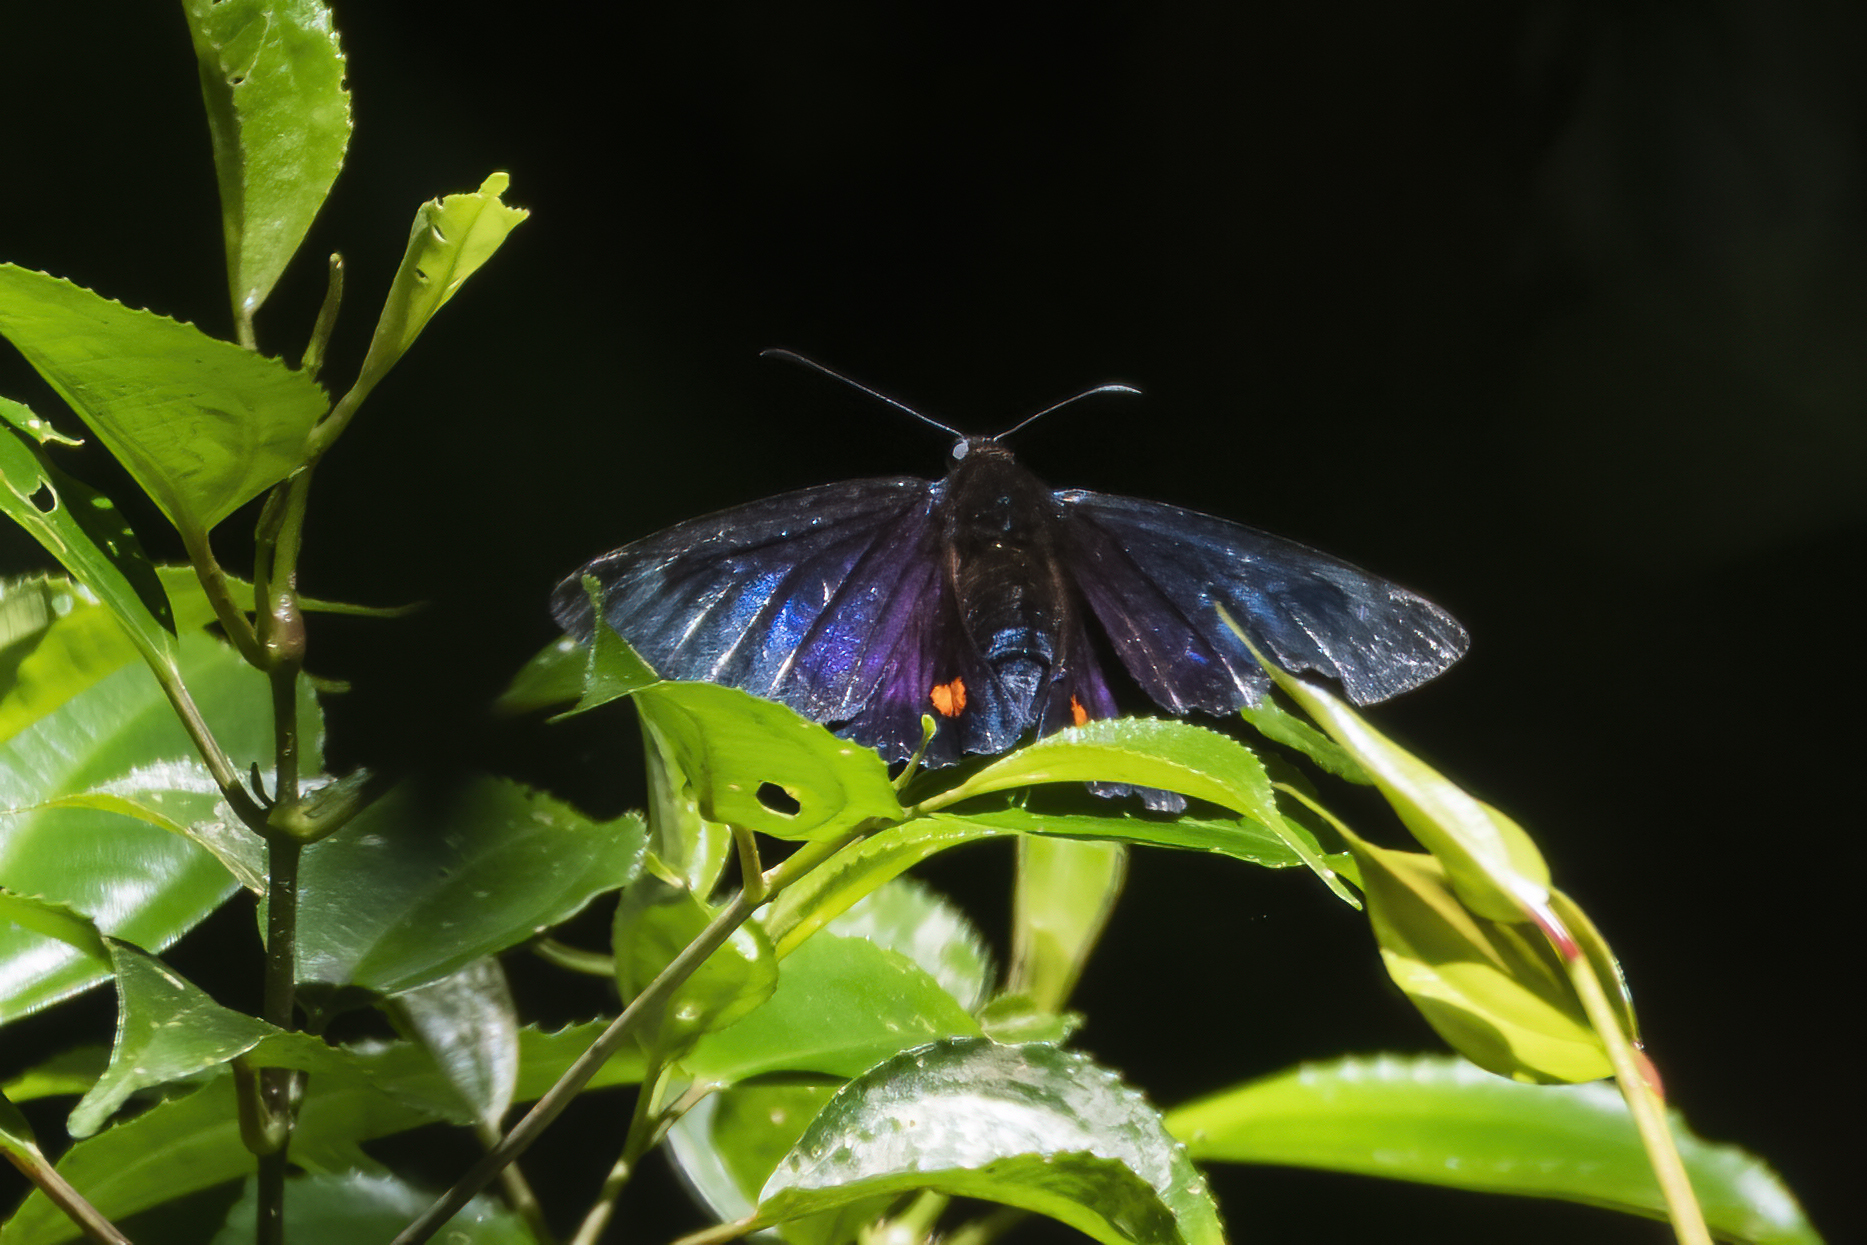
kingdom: Animalia
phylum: Arthropoda
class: Insecta
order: Lepidoptera
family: Hesperiidae
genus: Creonpyge
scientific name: Creonpyge creon
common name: Creon skipper
